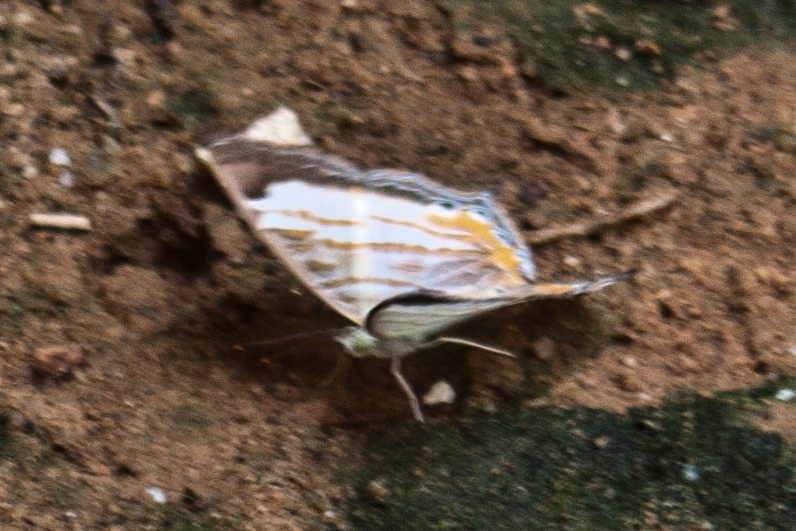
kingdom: Animalia
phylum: Arthropoda
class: Insecta
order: Lepidoptera
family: Nymphalidae
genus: Cyrestis
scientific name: Cyrestis themire
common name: Little mapwing
